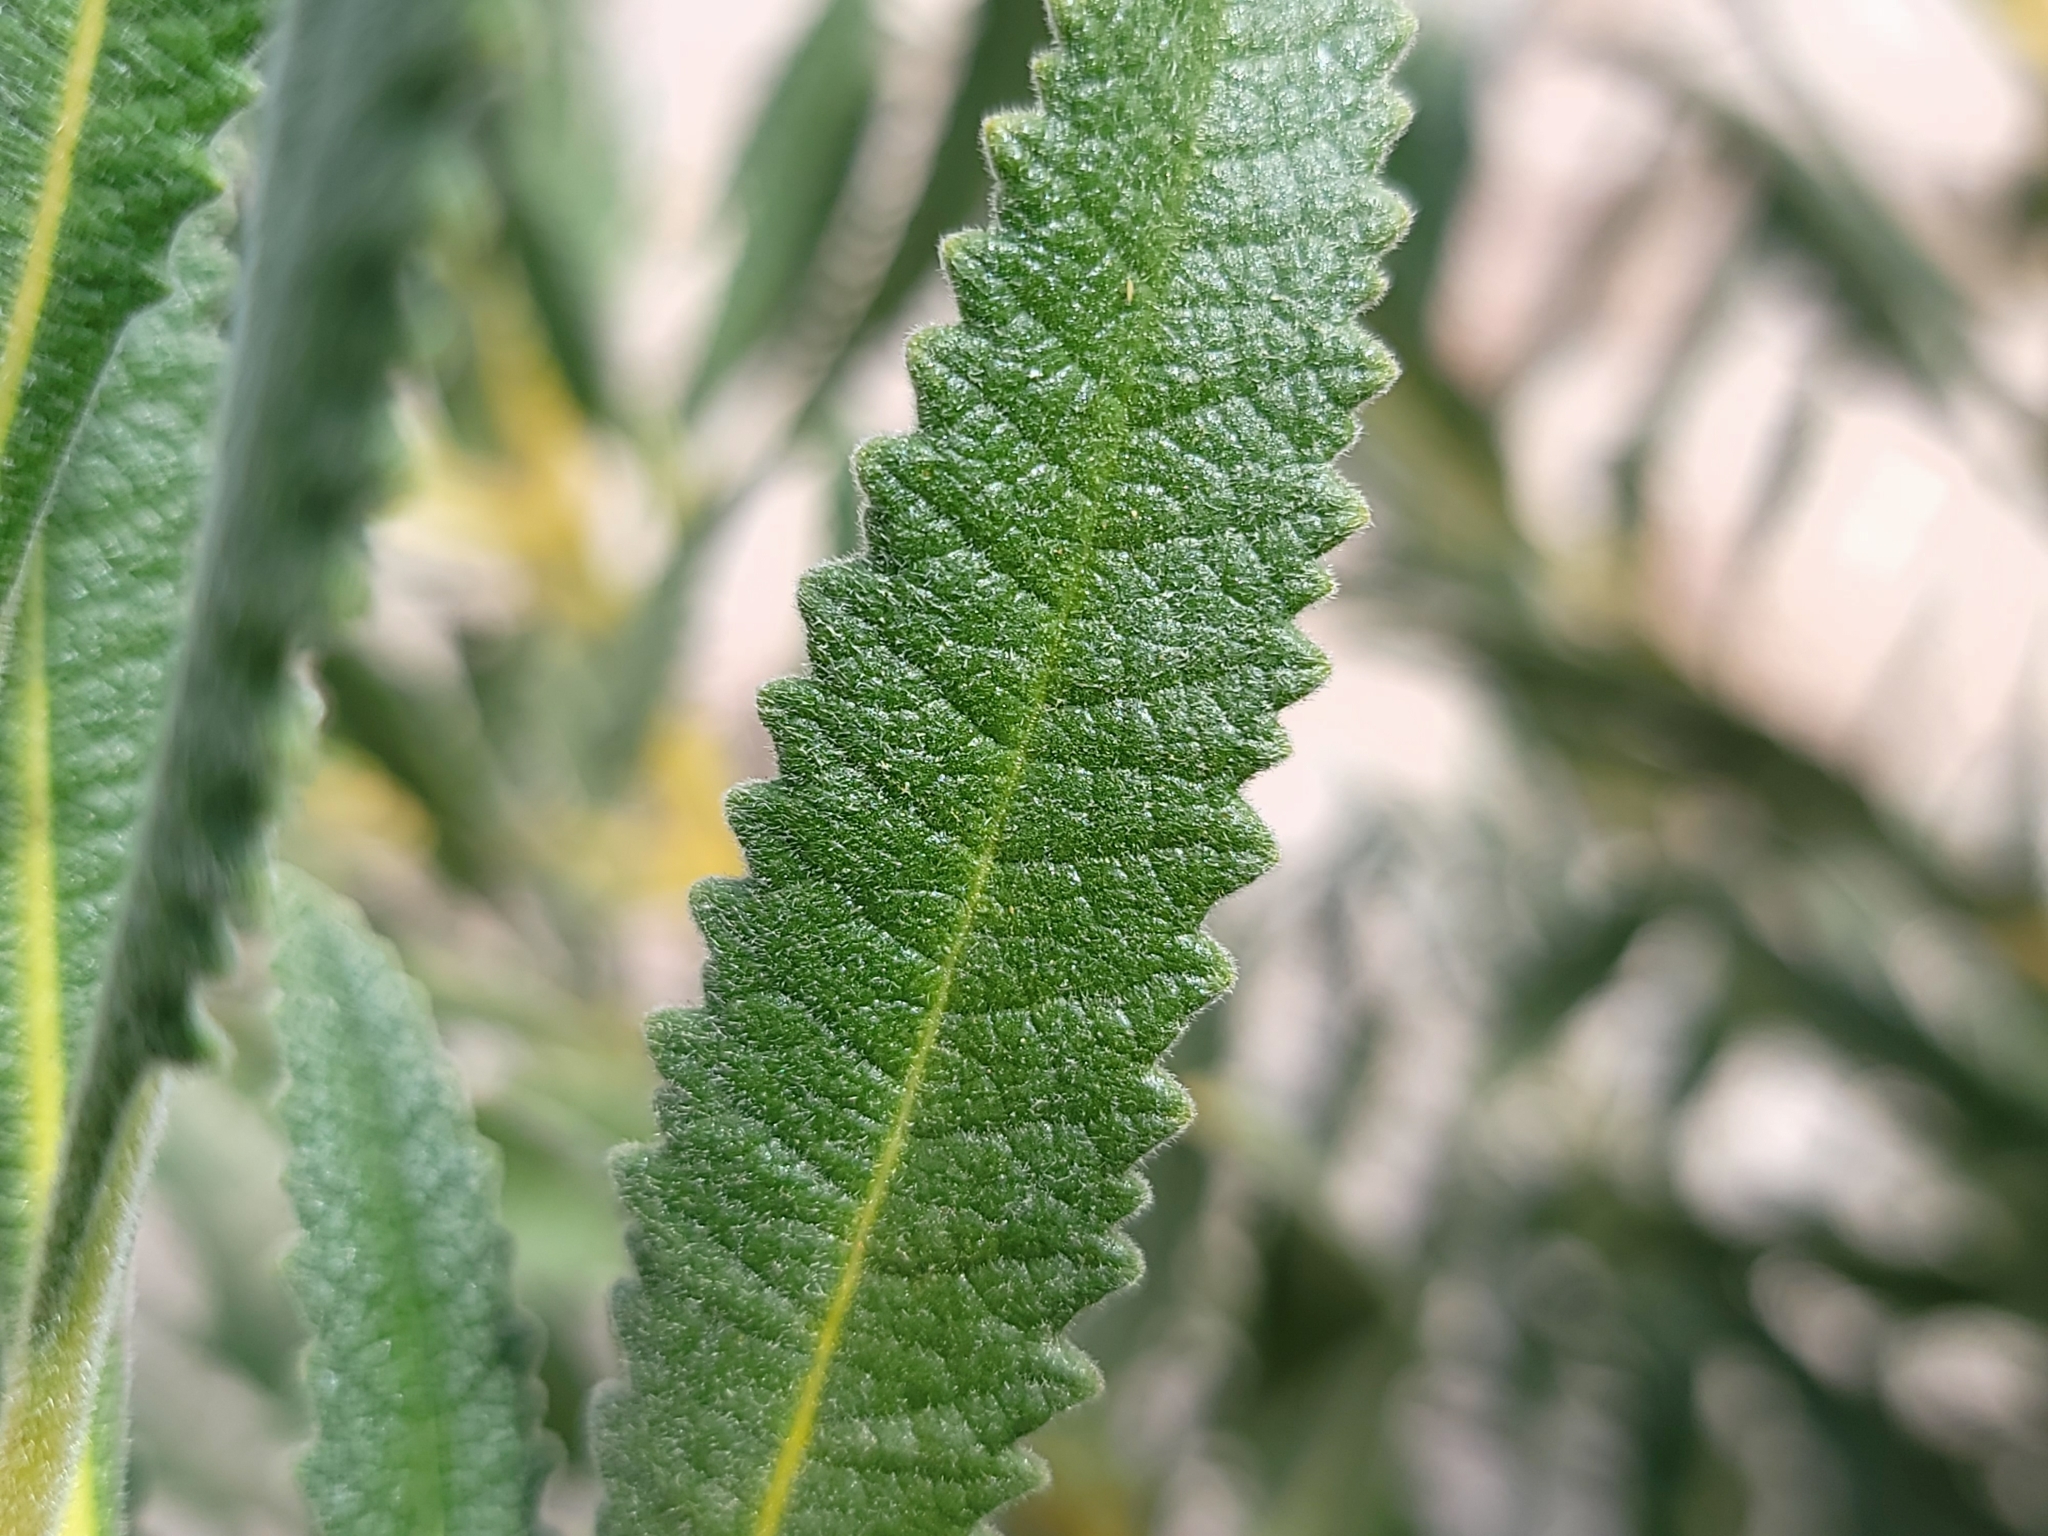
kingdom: Plantae
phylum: Tracheophyta
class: Magnoliopsida
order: Boraginales
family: Namaceae
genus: Eriodictyon
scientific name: Eriodictyon crassifolium
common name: Thick-leaf yerba-santa
